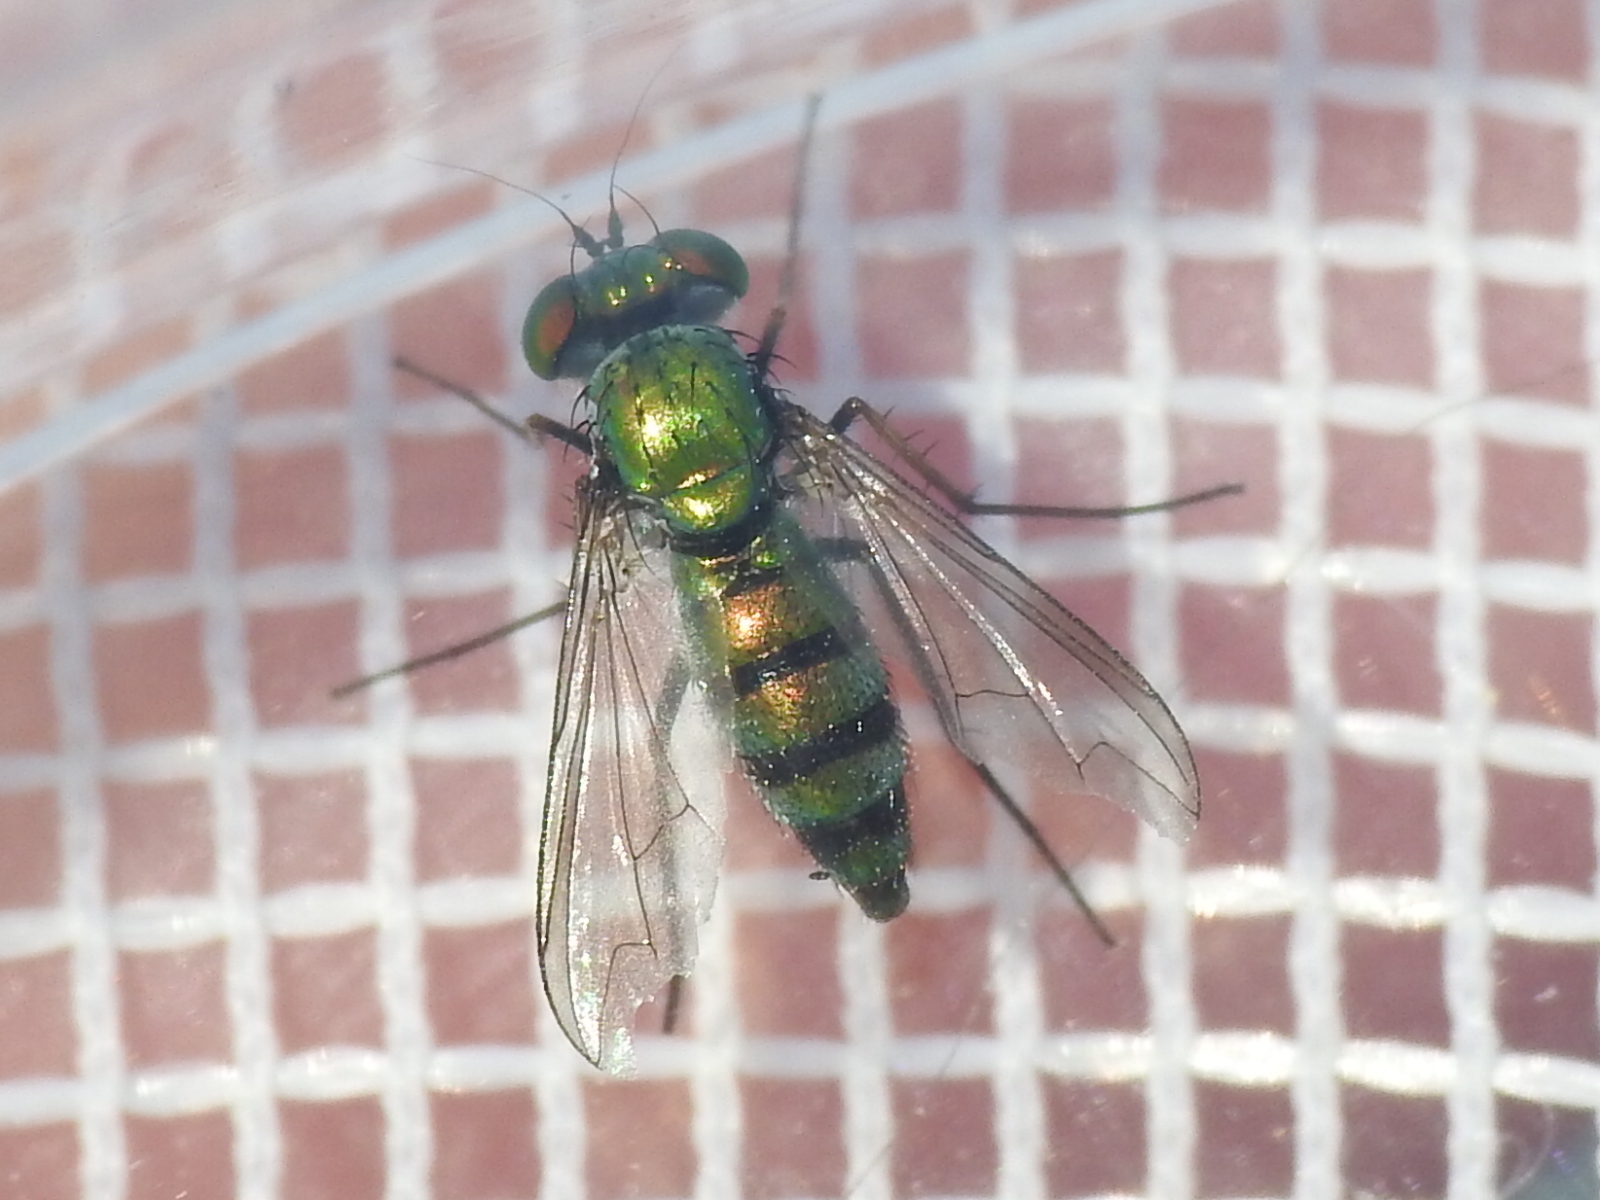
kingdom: Animalia
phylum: Arthropoda
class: Insecta
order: Diptera
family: Dolichopodidae
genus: Condylostylus
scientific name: Condylostylus longicornis
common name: Long-legged fly
